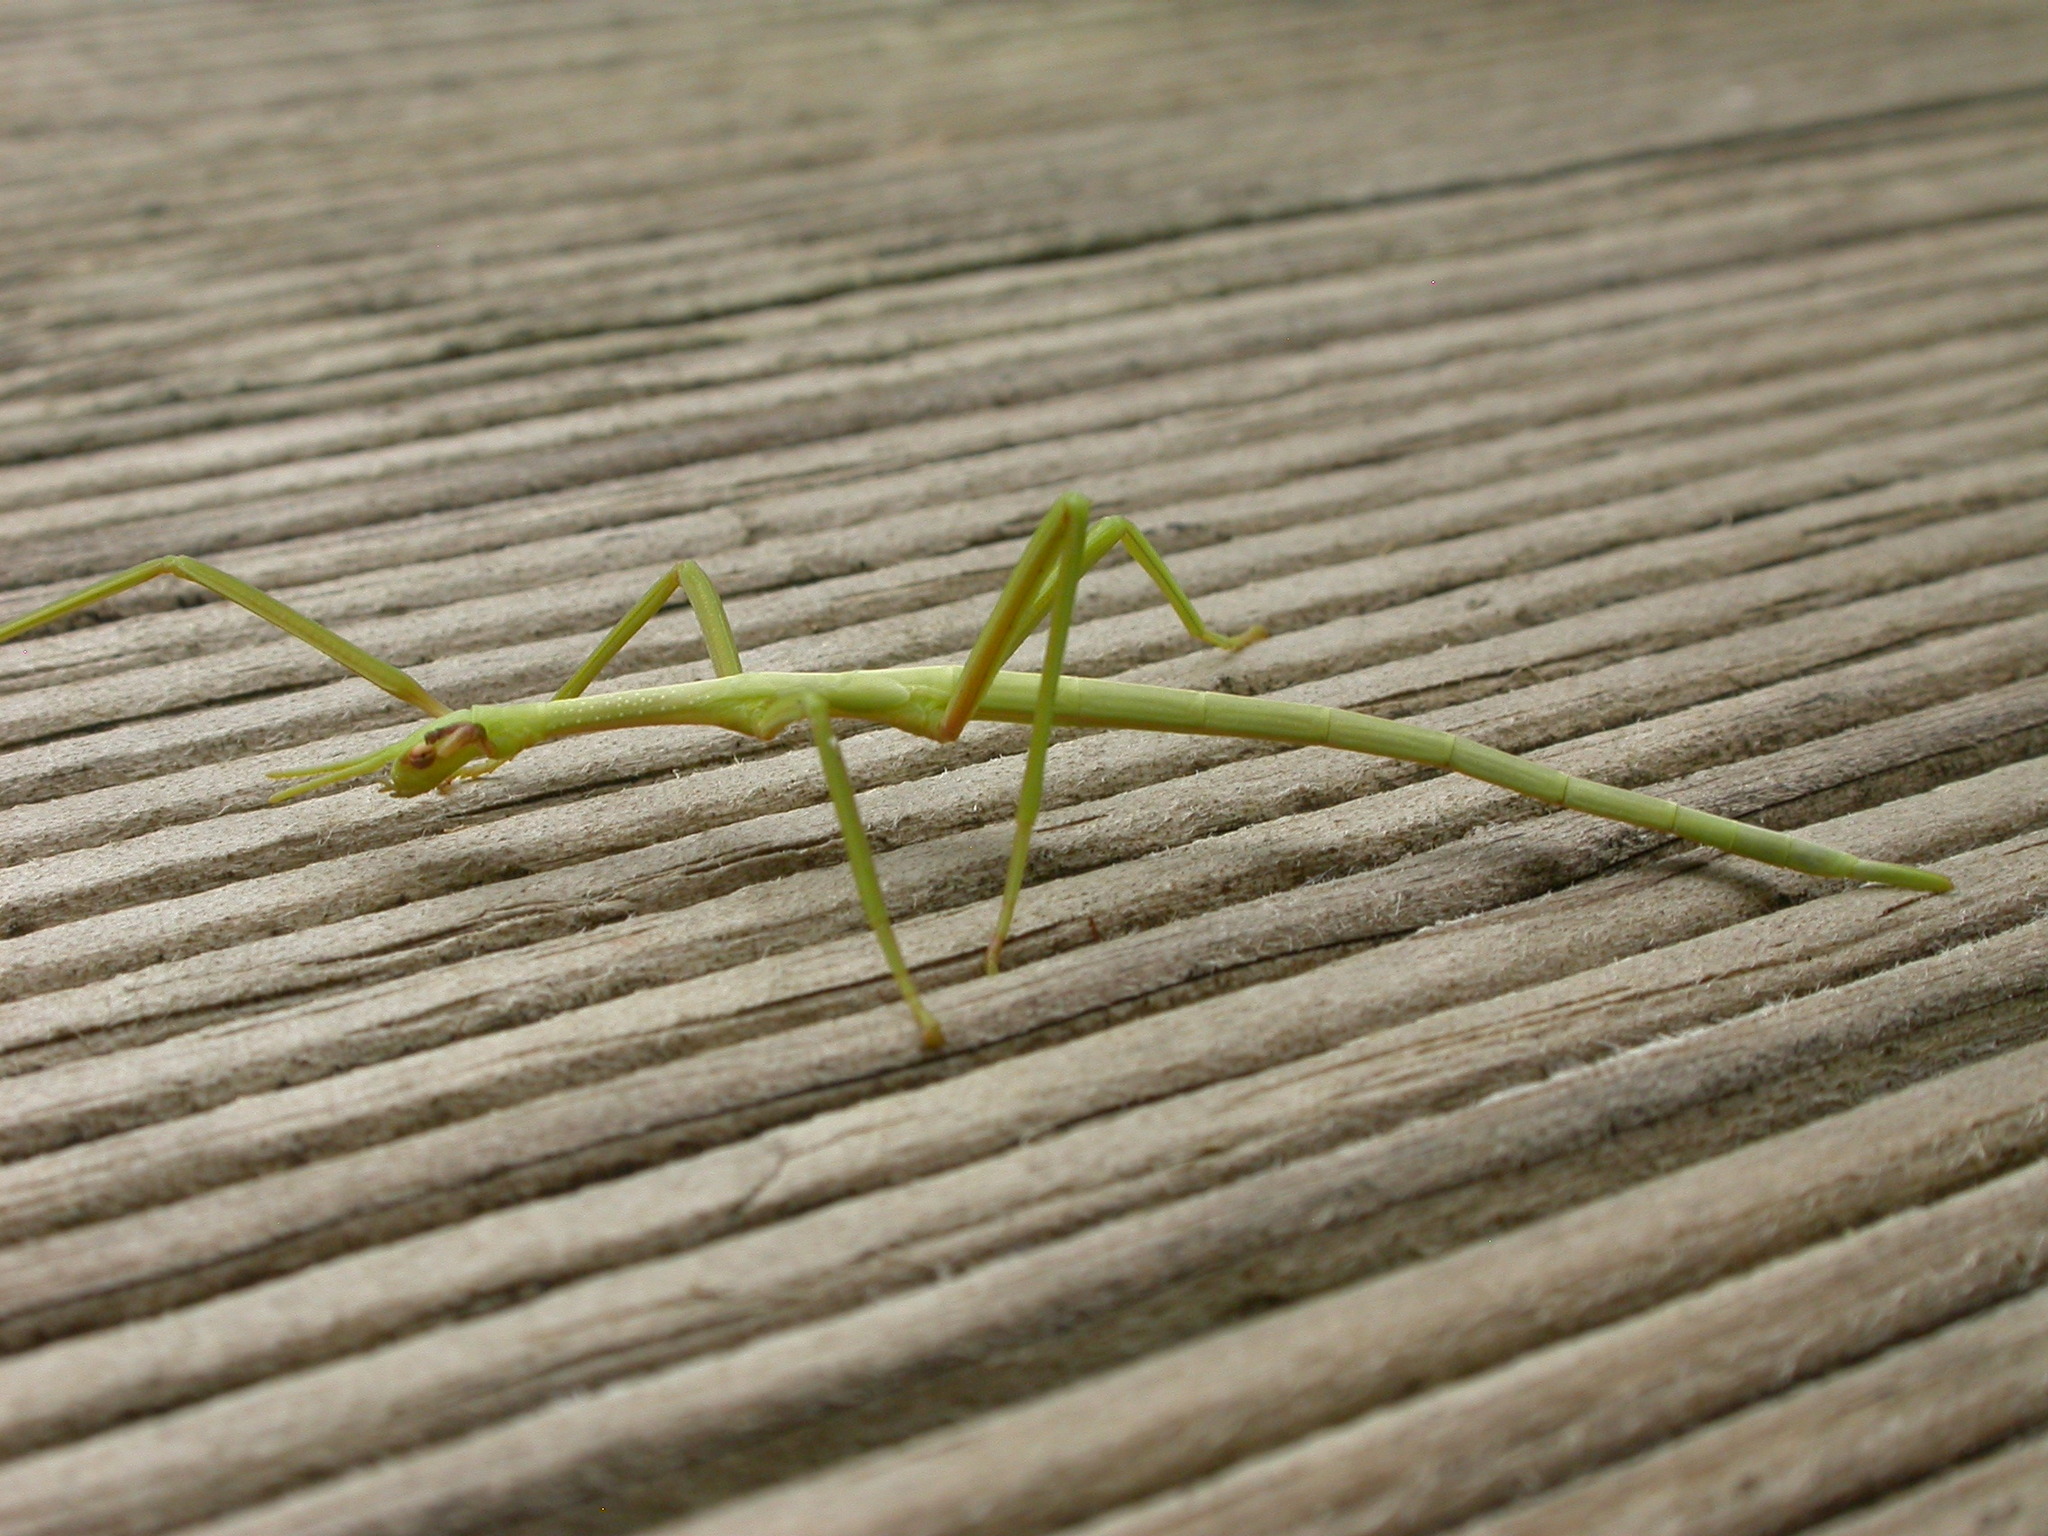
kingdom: Animalia
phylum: Arthropoda
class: Insecta
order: Phasmida
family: Phasmatidae
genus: Didymuria
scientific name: Didymuria violescens
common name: Spur-legged stick-insect
